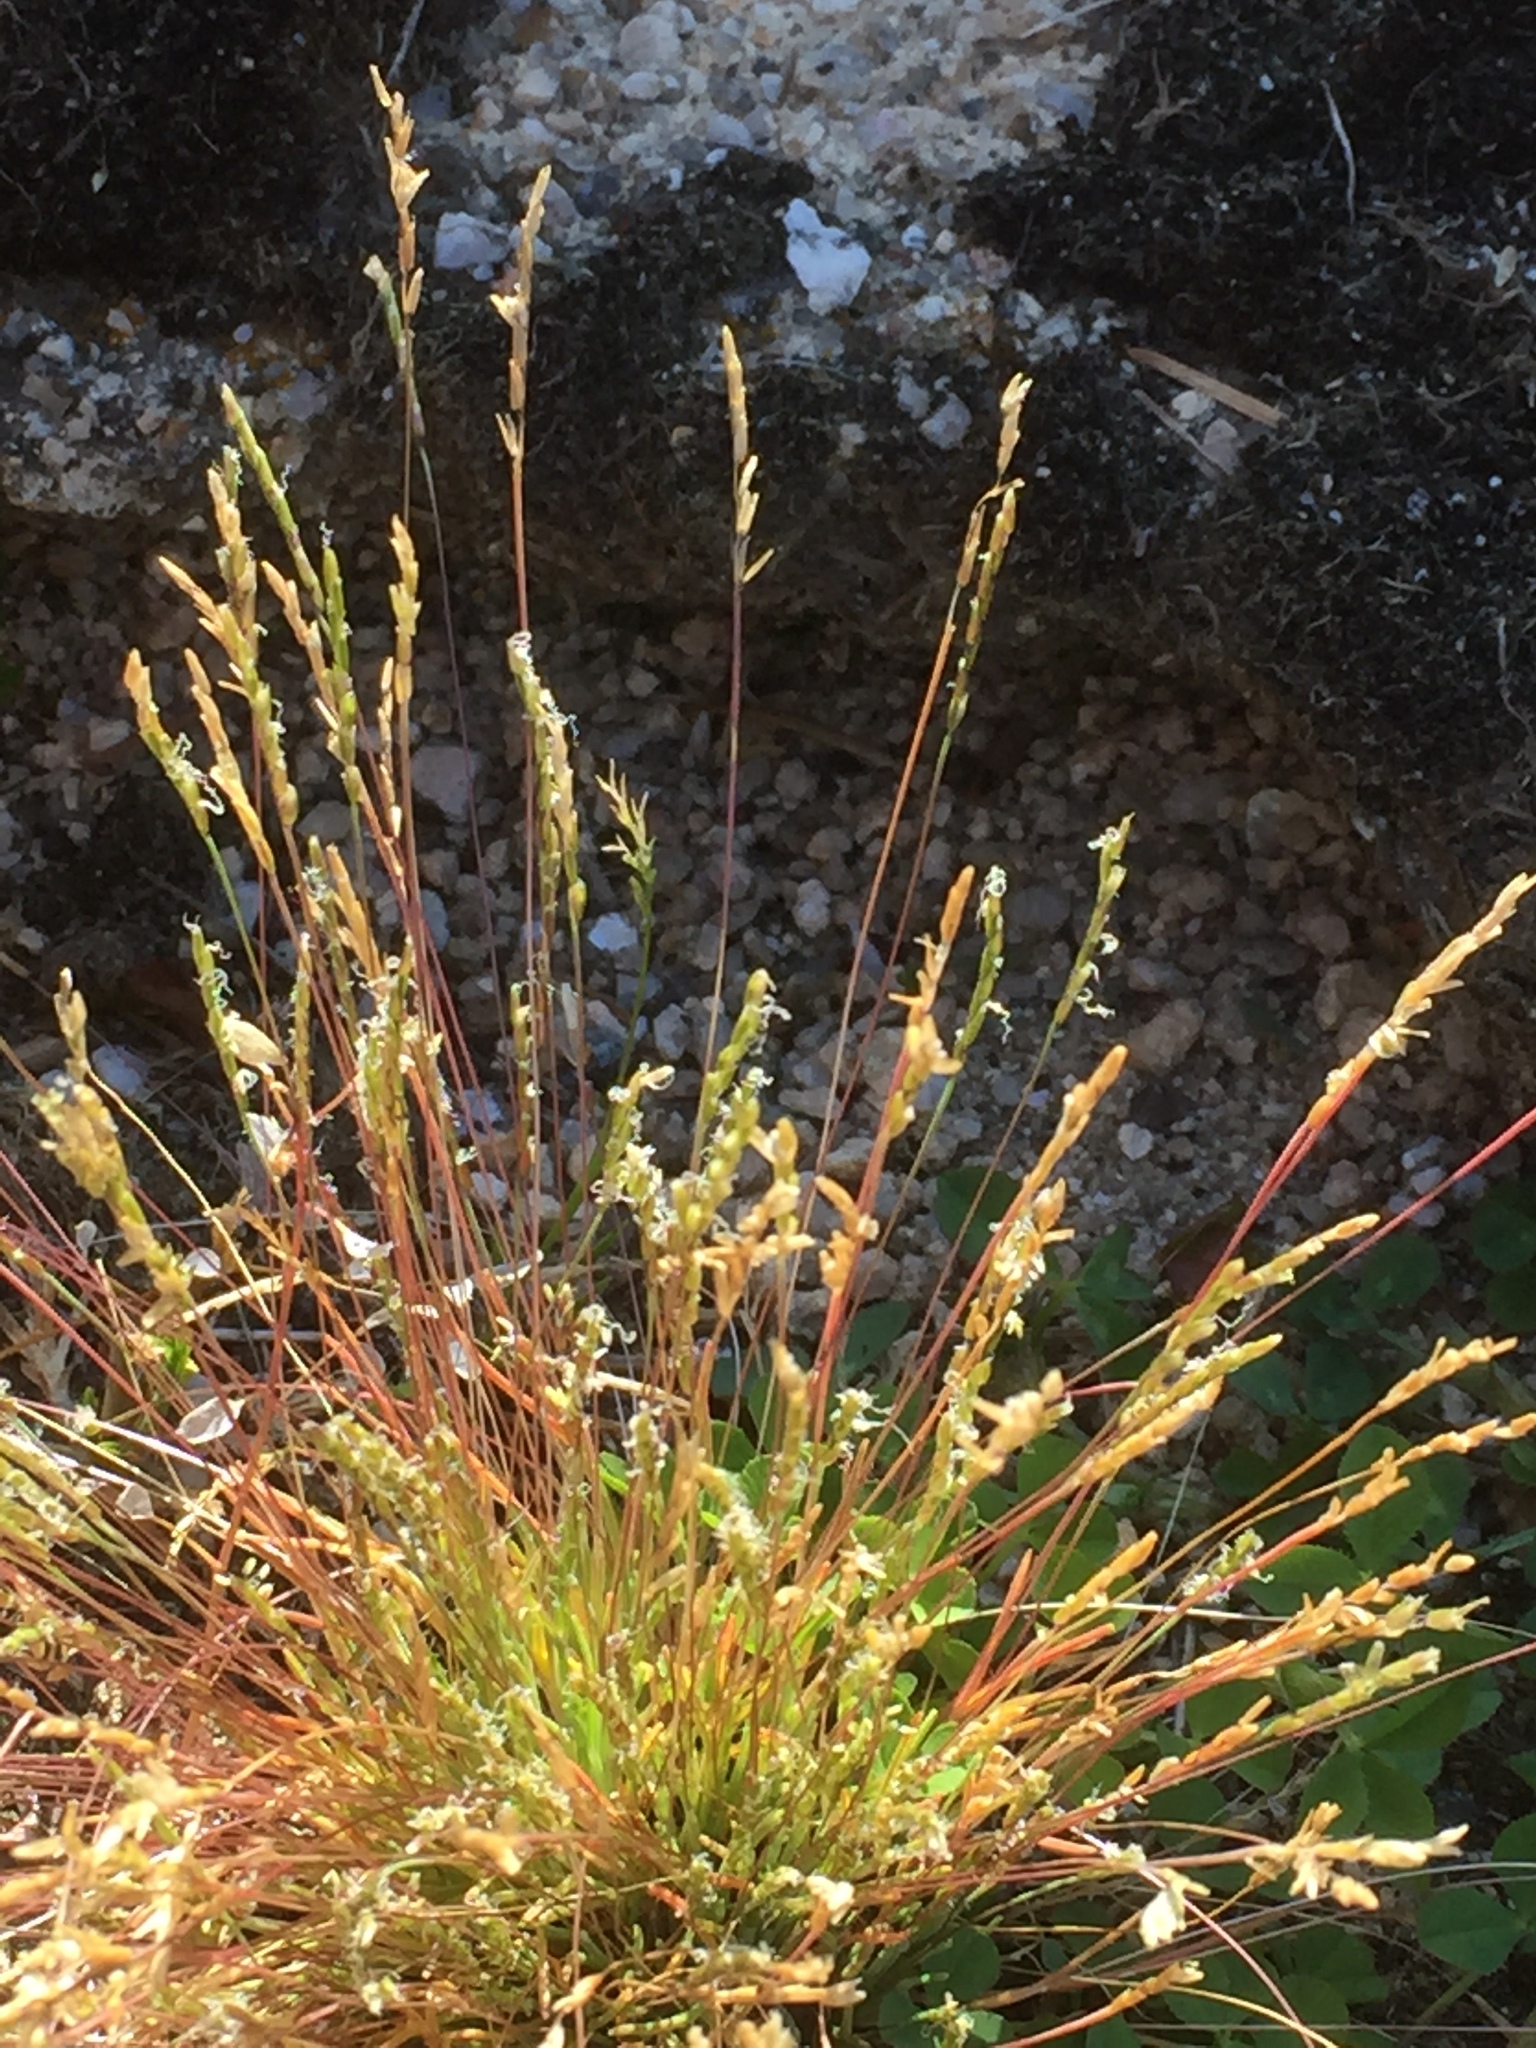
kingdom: Plantae
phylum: Tracheophyta
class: Liliopsida
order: Poales
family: Poaceae
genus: Mibora
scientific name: Mibora minima
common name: Early sand-grass
